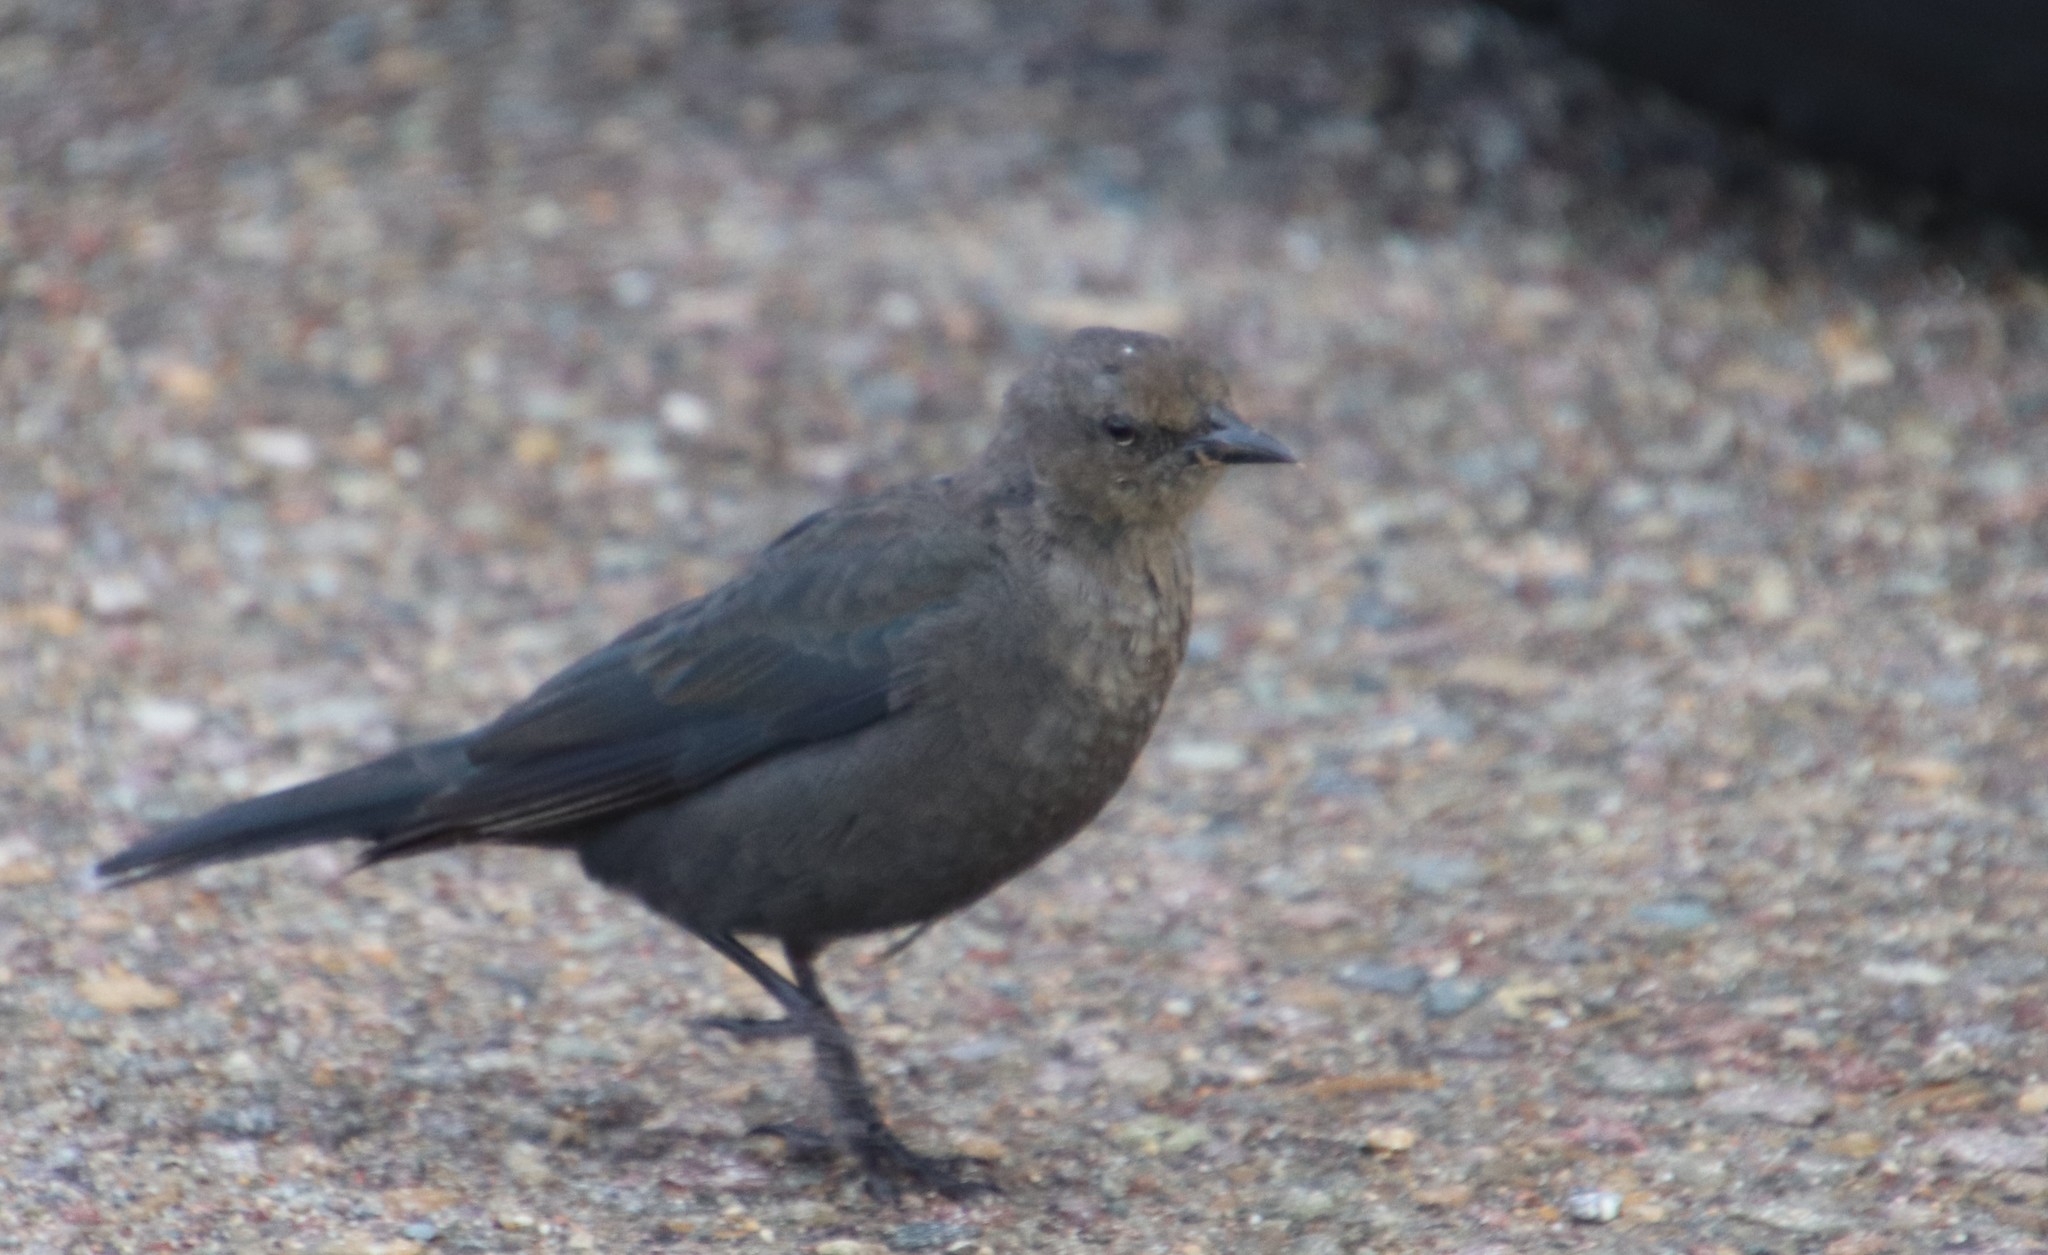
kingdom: Animalia
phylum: Chordata
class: Aves
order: Passeriformes
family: Icteridae
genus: Euphagus
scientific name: Euphagus cyanocephalus
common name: Brewer's blackbird
